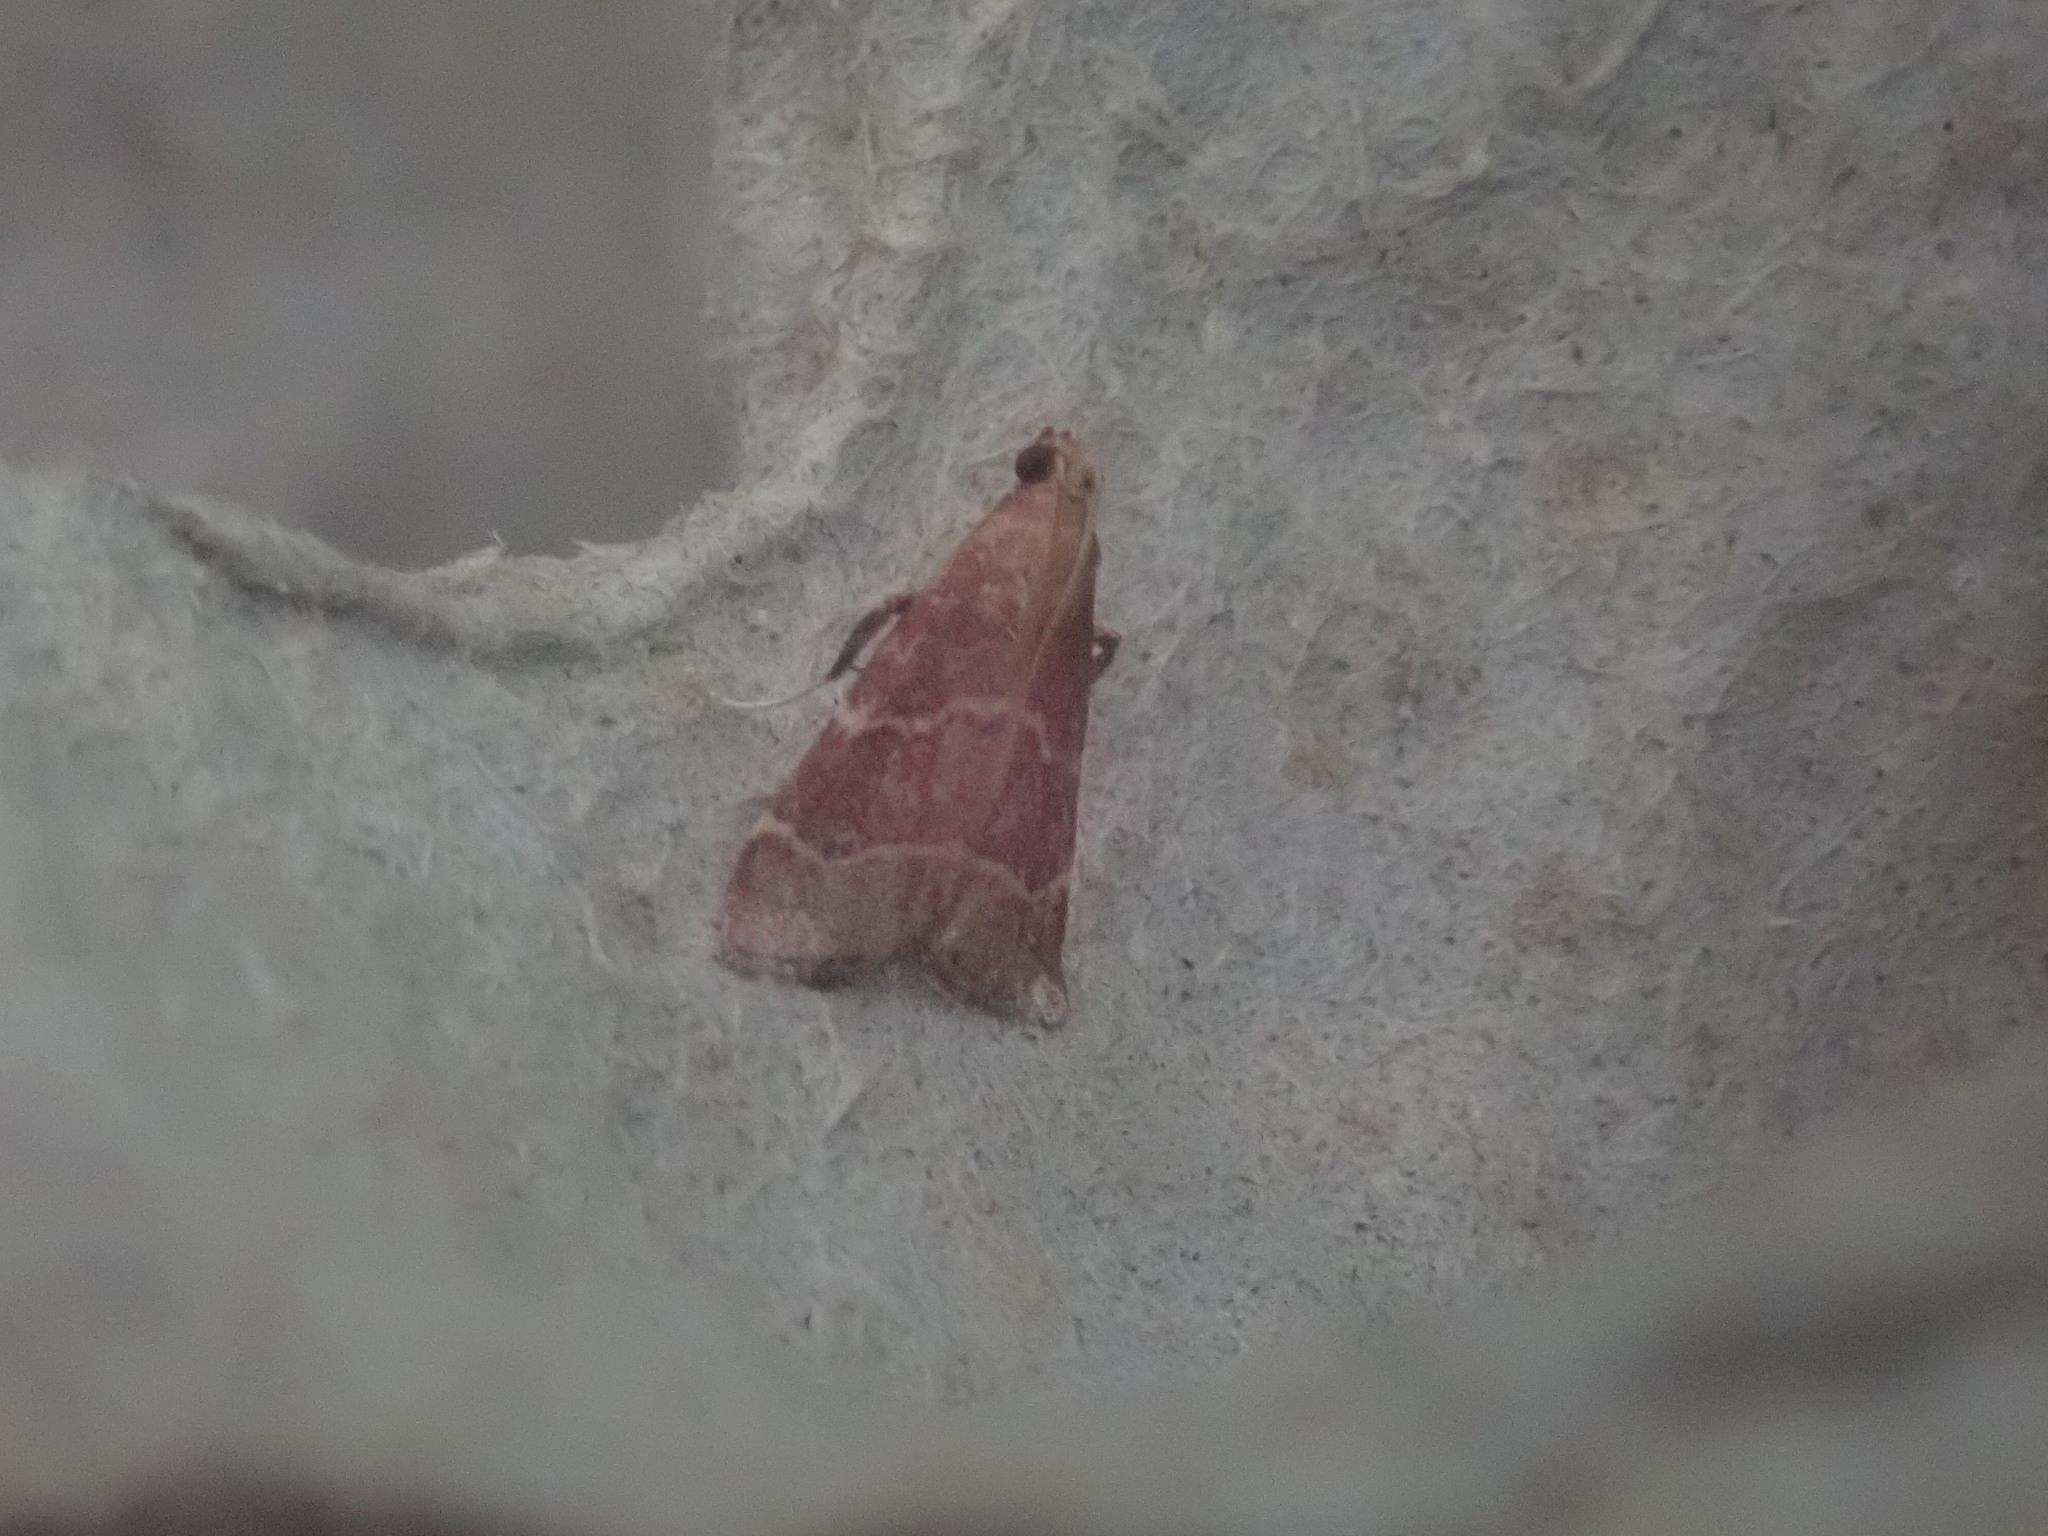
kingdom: Animalia
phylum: Arthropoda
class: Insecta
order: Lepidoptera
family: Pyralidae
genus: Arta
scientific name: Arta statalis
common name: Posturing arta moth
